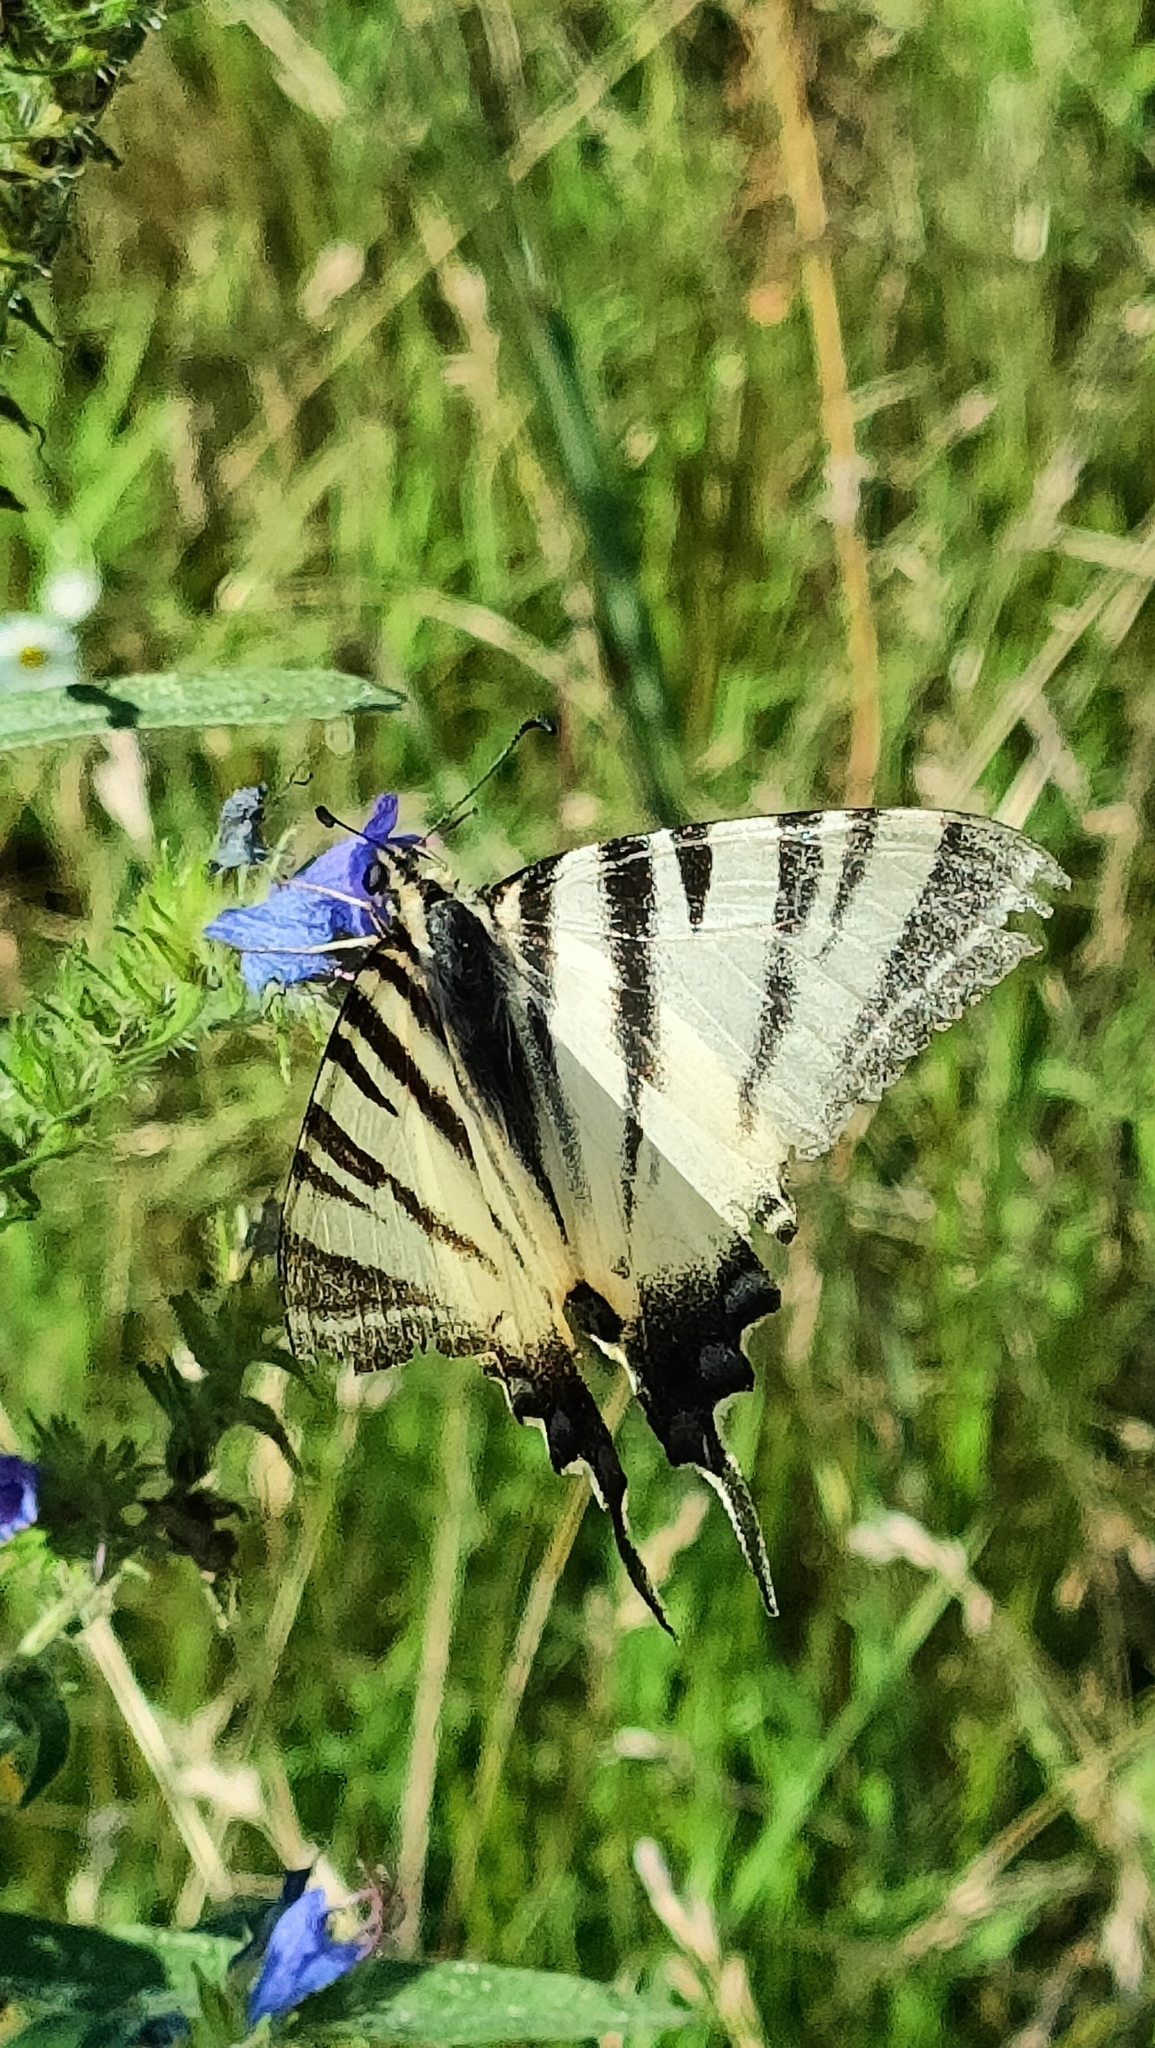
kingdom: Animalia
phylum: Arthropoda
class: Insecta
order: Lepidoptera
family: Papilionidae
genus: Iphiclides
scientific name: Iphiclides podalirius
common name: Scarce swallowtail
